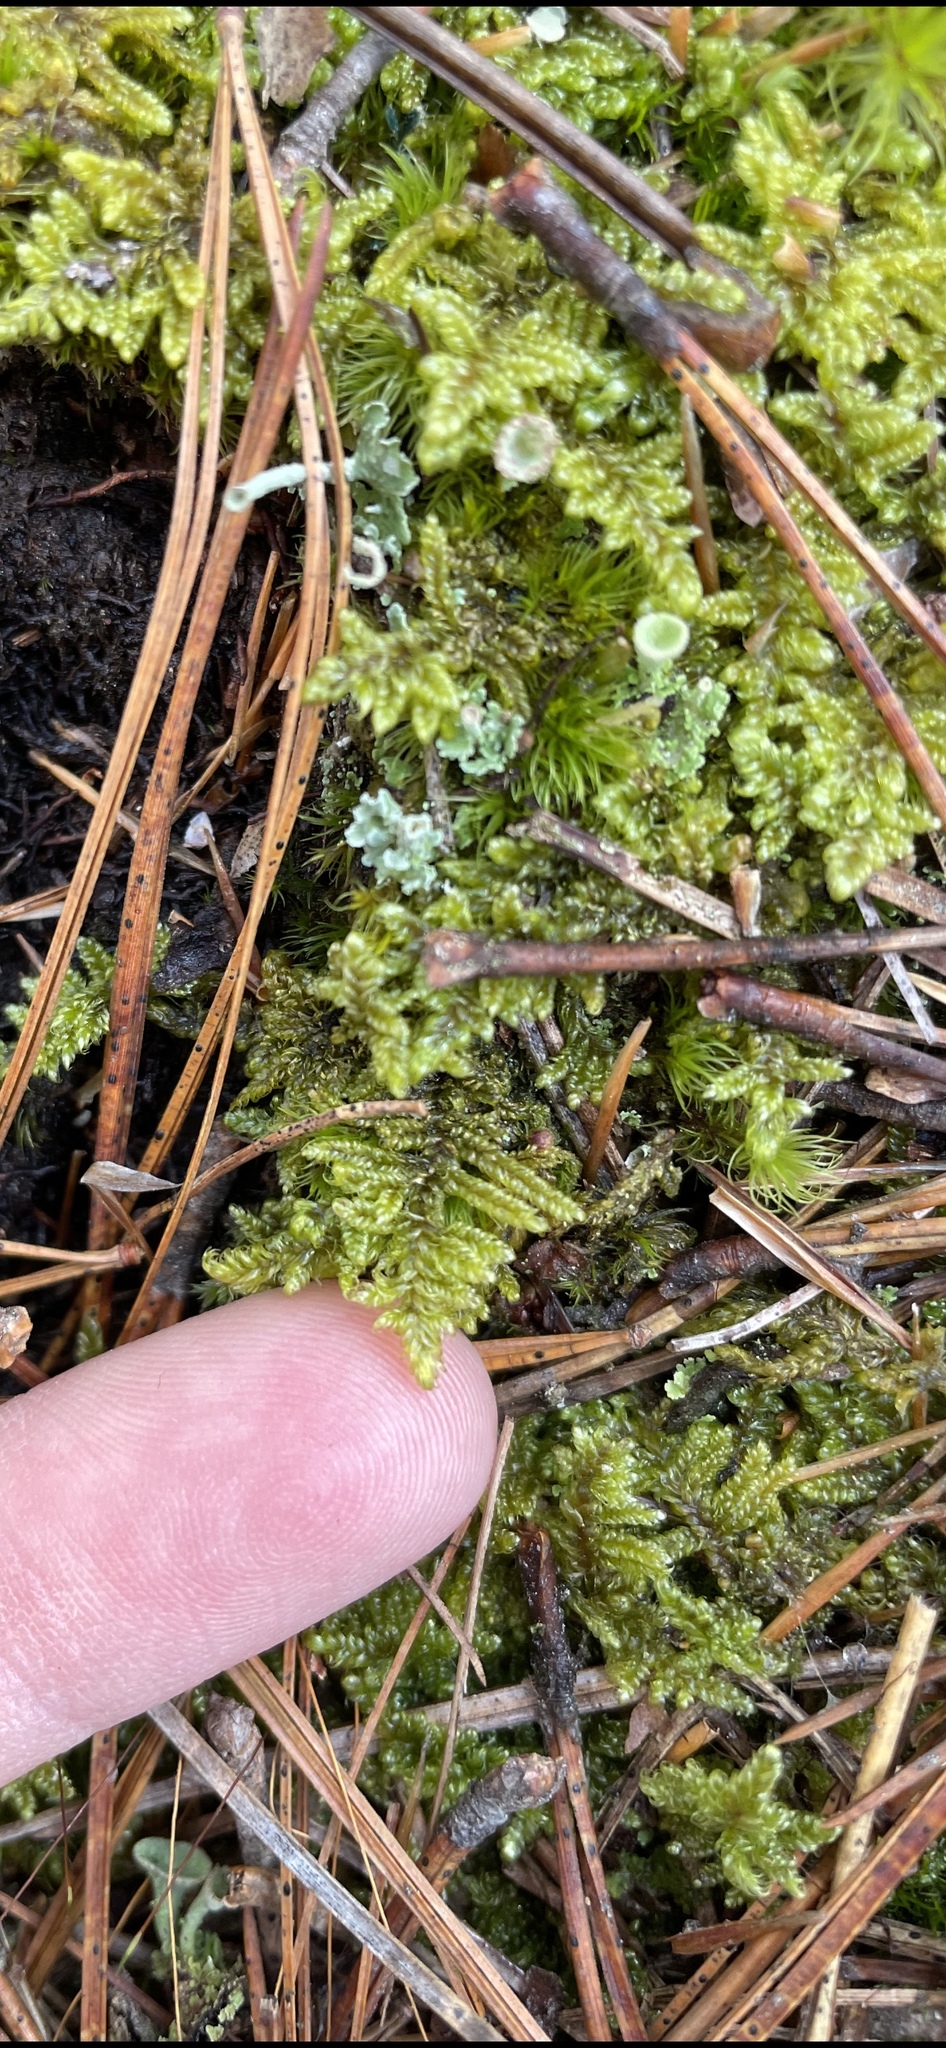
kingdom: Plantae
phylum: Bryophyta
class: Bryopsida
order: Hypnales
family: Callicladiaceae
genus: Callicladium
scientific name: Callicladium imponens
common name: Brocade moss
